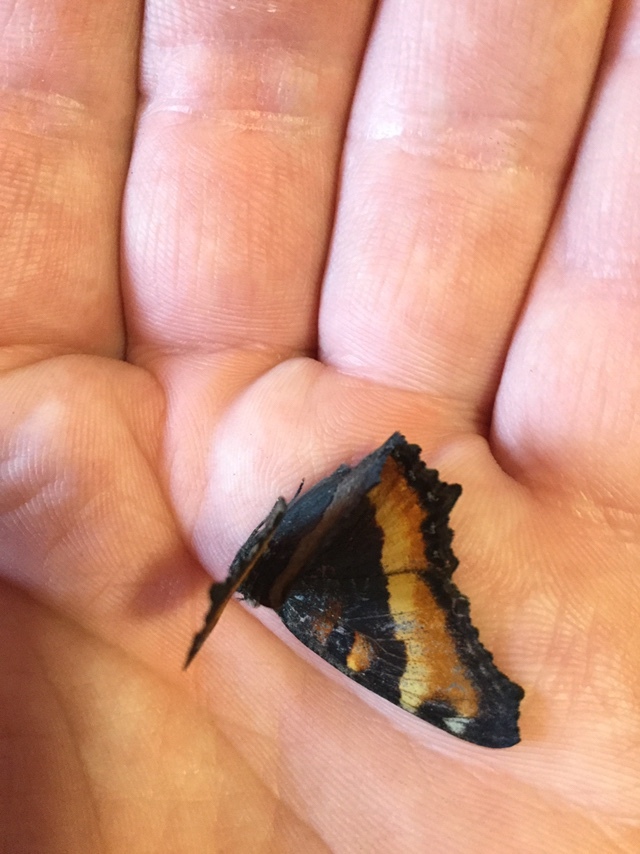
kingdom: Animalia
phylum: Arthropoda
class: Insecta
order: Lepidoptera
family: Nymphalidae
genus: Aglais
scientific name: Aglais milberti
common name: Milbert's tortoiseshell
